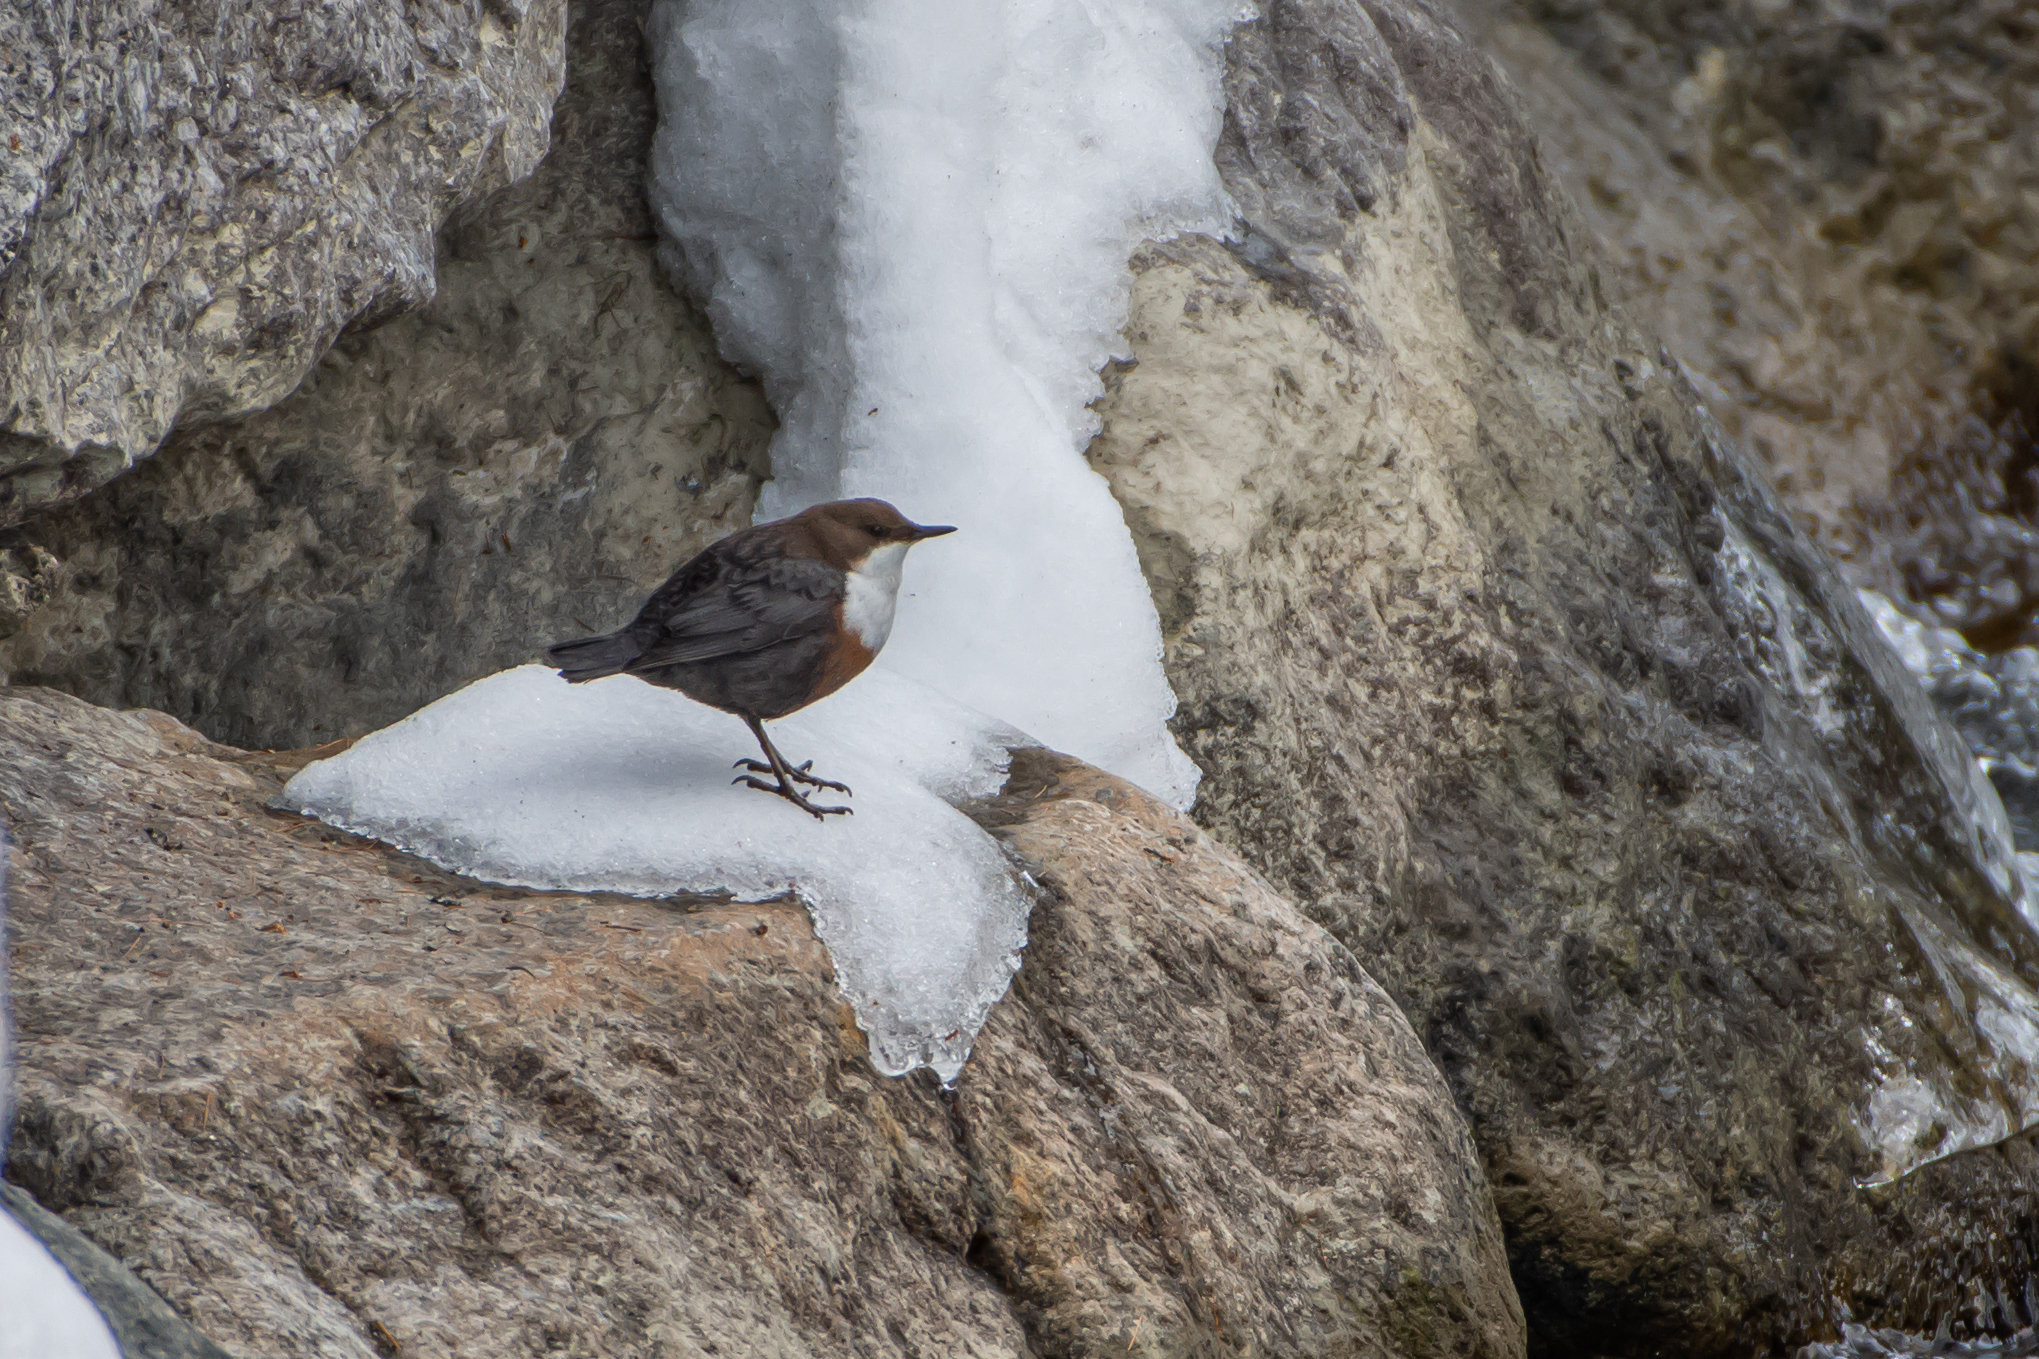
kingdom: Animalia
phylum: Chordata
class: Aves
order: Passeriformes
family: Cinclidae
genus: Cinclus
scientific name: Cinclus cinclus
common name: White-throated dipper
